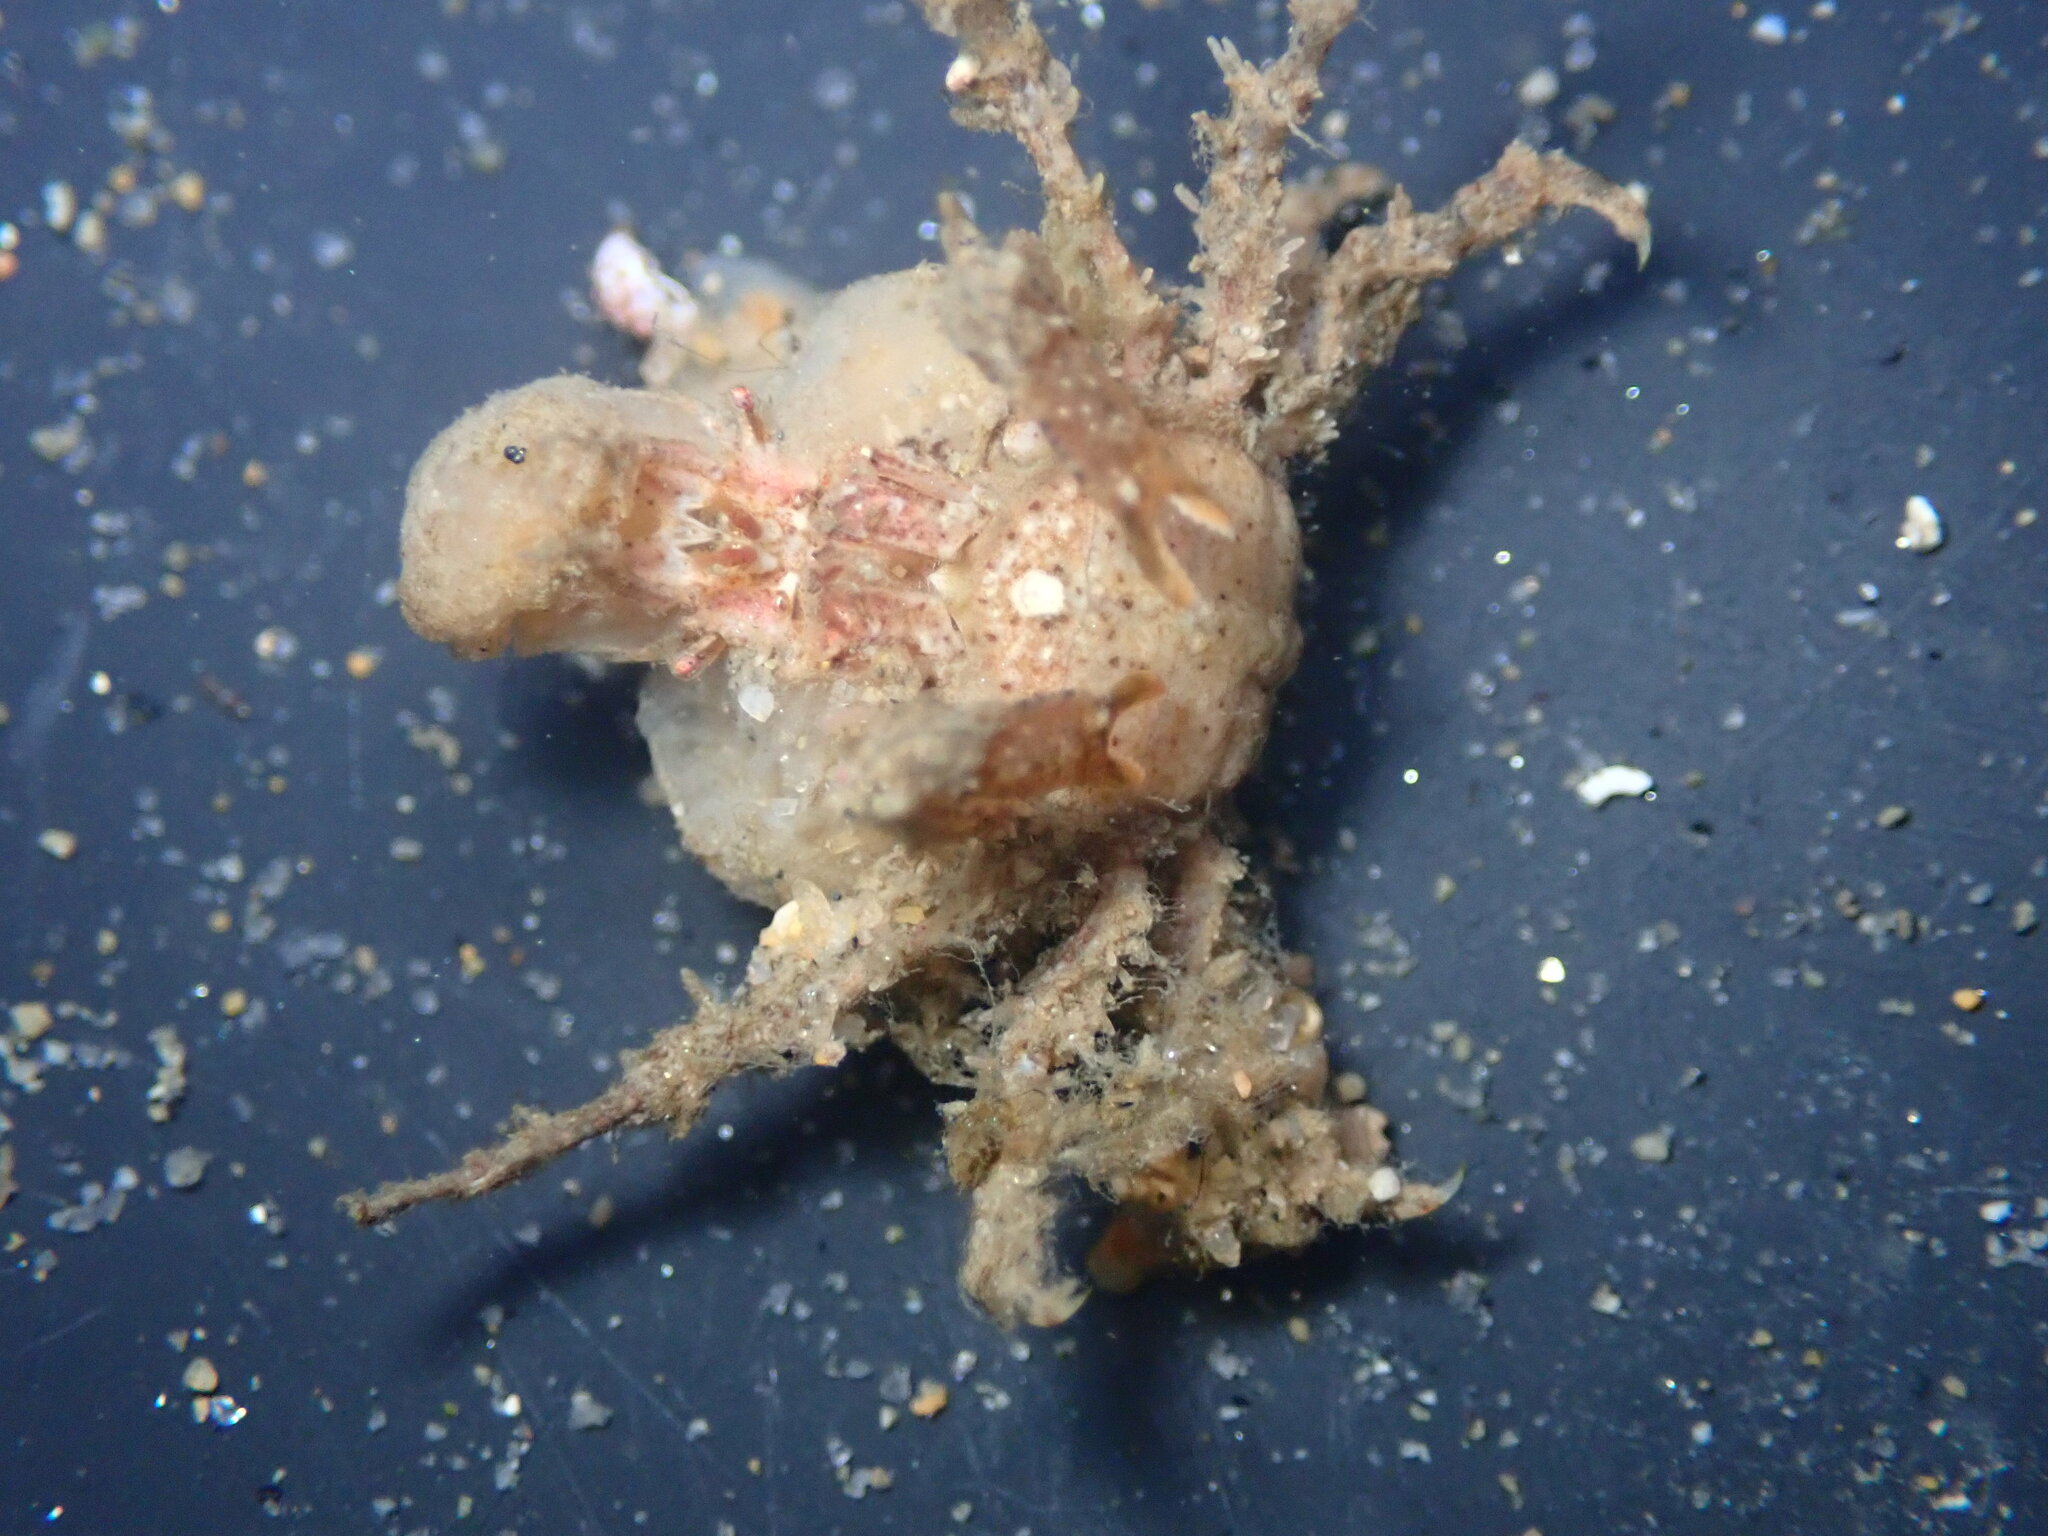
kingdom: Animalia
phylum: Arthropoda
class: Malacostraca
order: Decapoda
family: Epialtidae
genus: Pelia
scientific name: Pelia tumida
